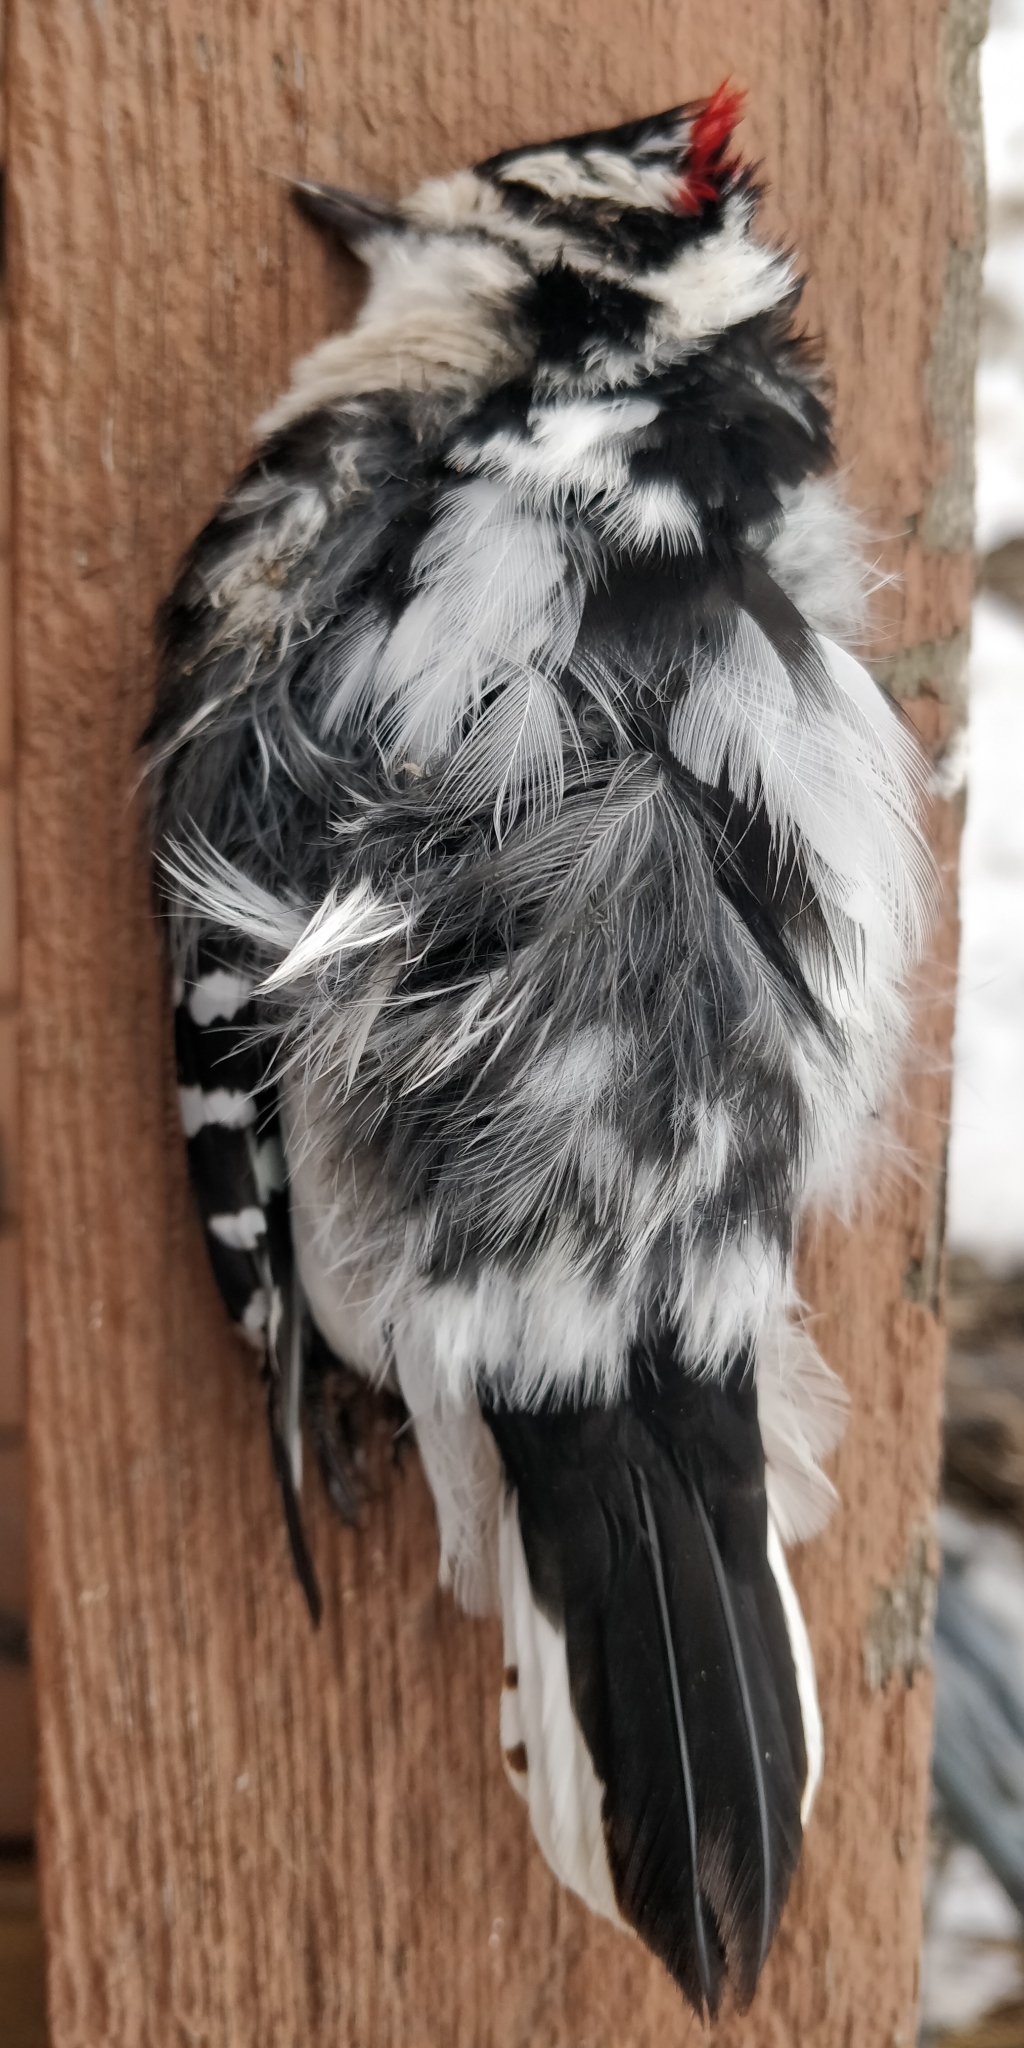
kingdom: Animalia
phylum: Chordata
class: Aves
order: Piciformes
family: Picidae
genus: Dryobates
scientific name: Dryobates pubescens
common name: Downy woodpecker
